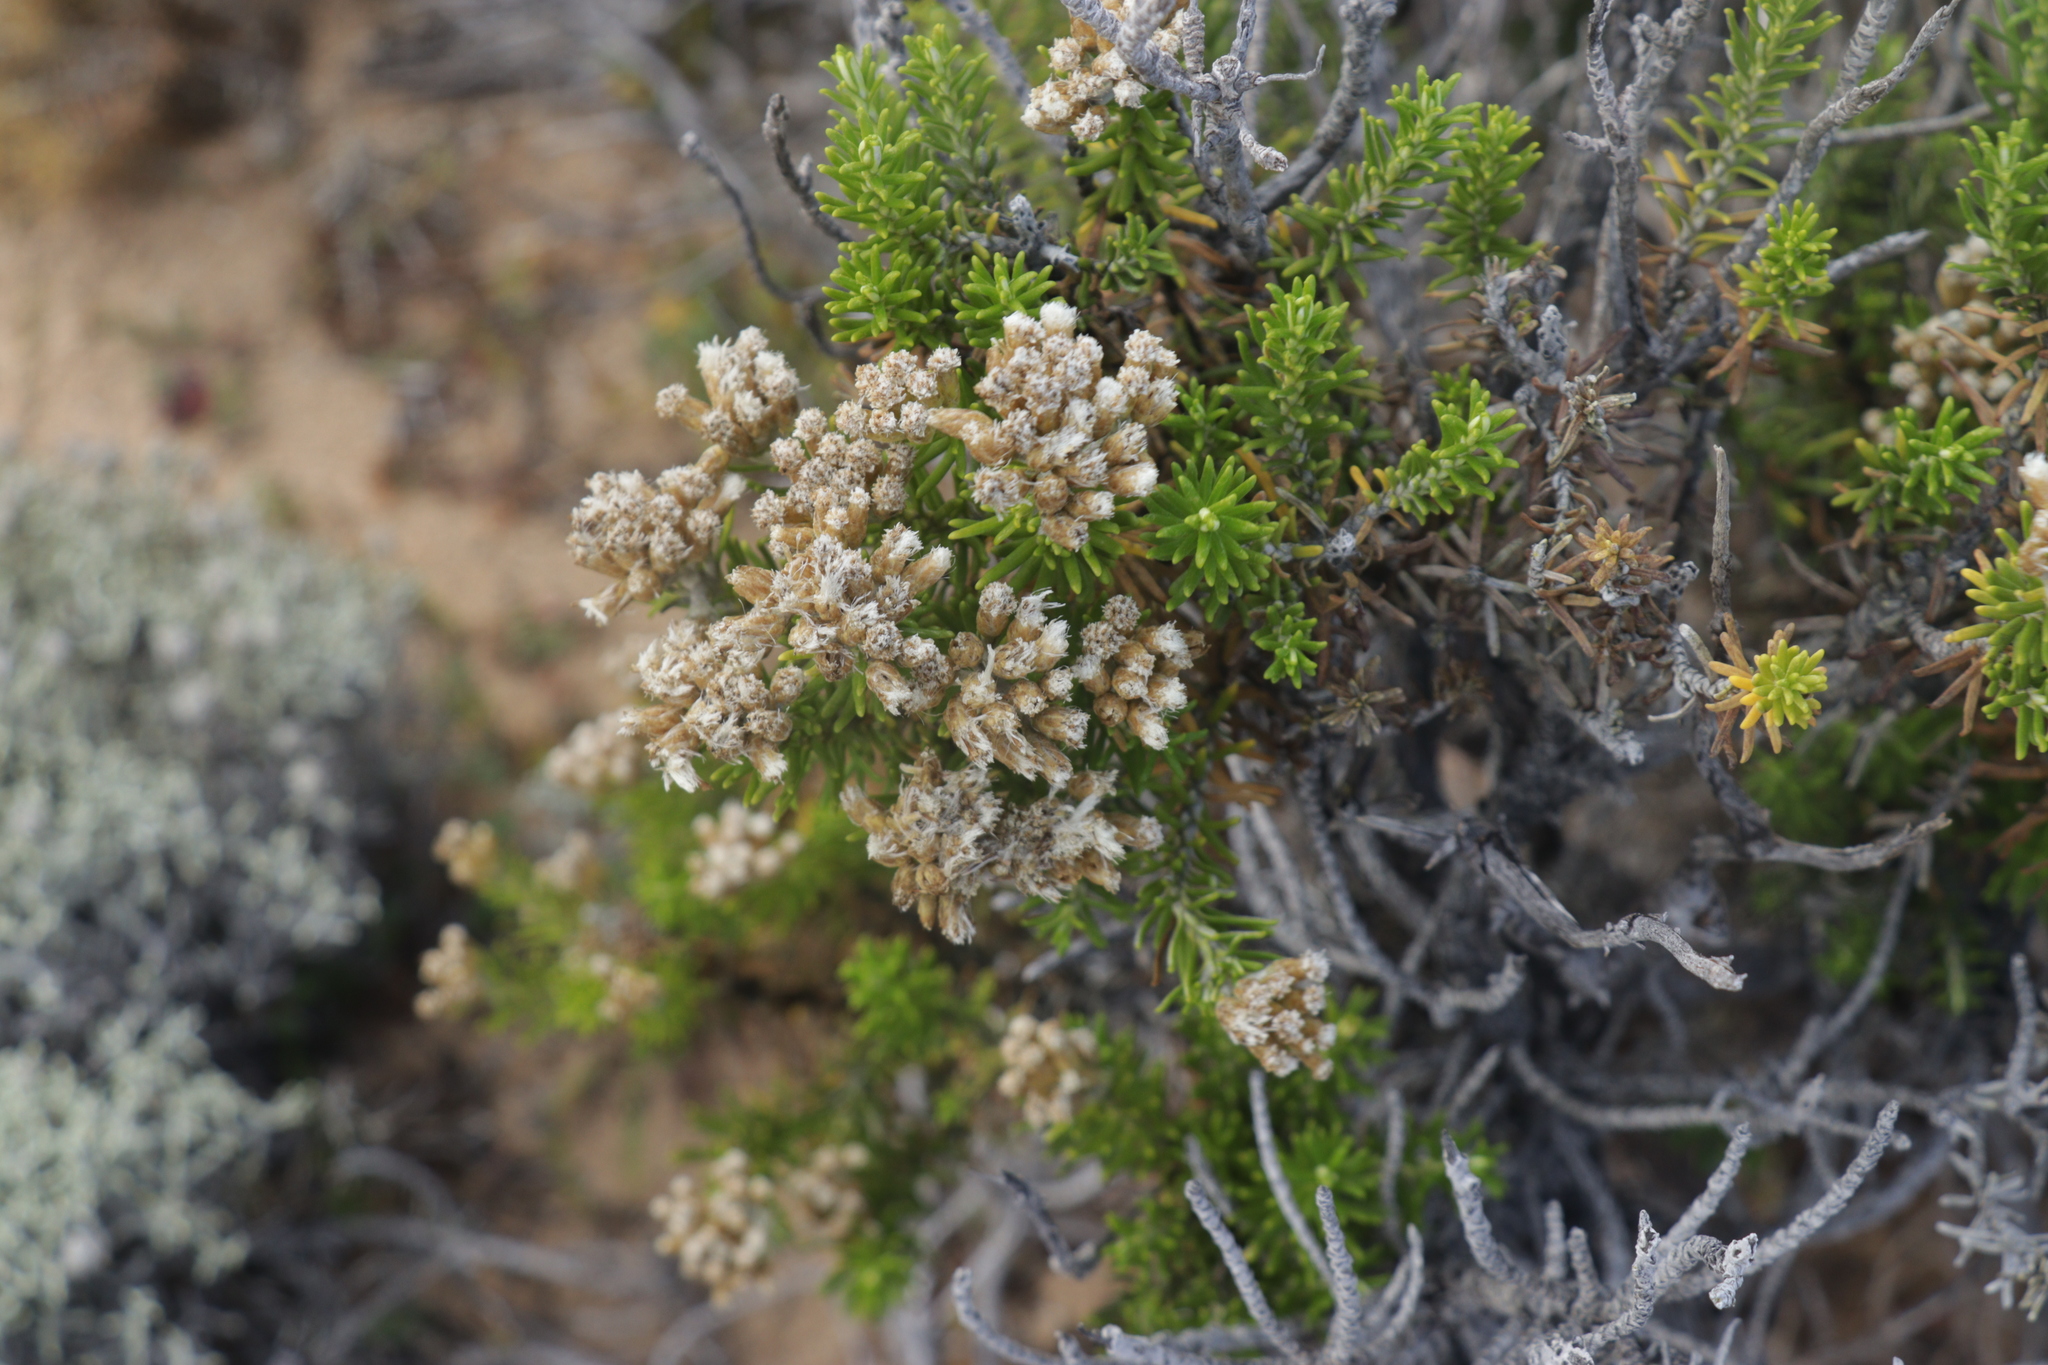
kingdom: Plantae
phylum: Tracheophyta
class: Magnoliopsida
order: Asterales
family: Asteraceae
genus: Ozothamnus
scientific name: Ozothamnus cinereus
